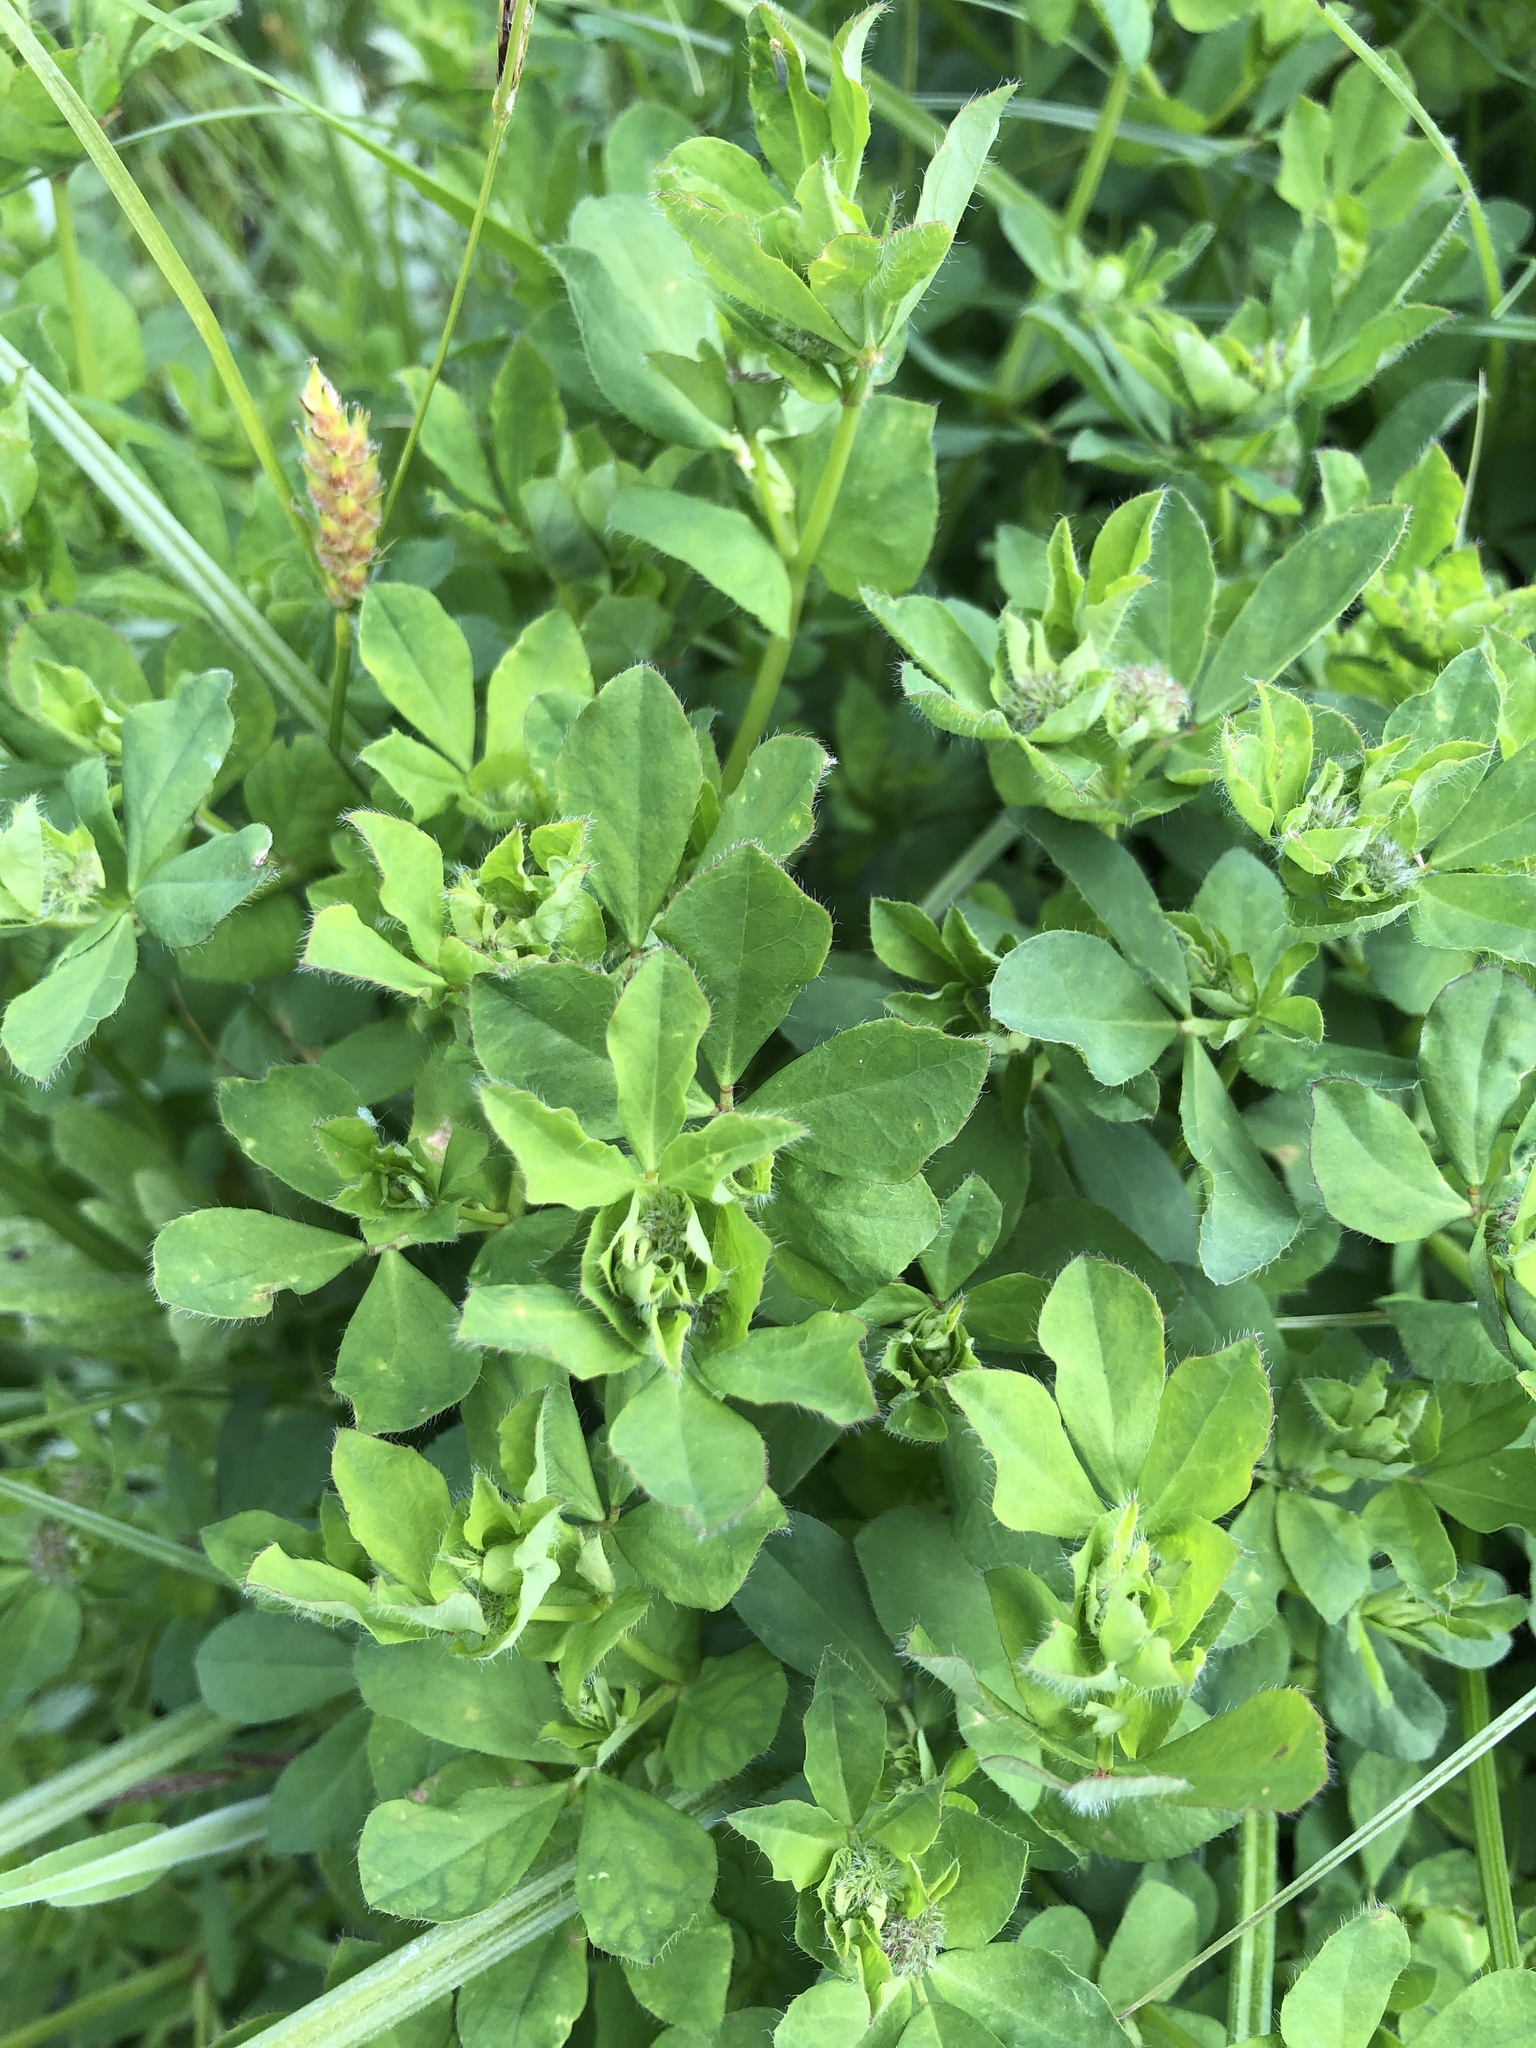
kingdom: Plantae
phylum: Tracheophyta
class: Magnoliopsida
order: Fabales
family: Fabaceae
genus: Lotus
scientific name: Lotus pedunculatus
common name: Greater birdsfoot-trefoil
